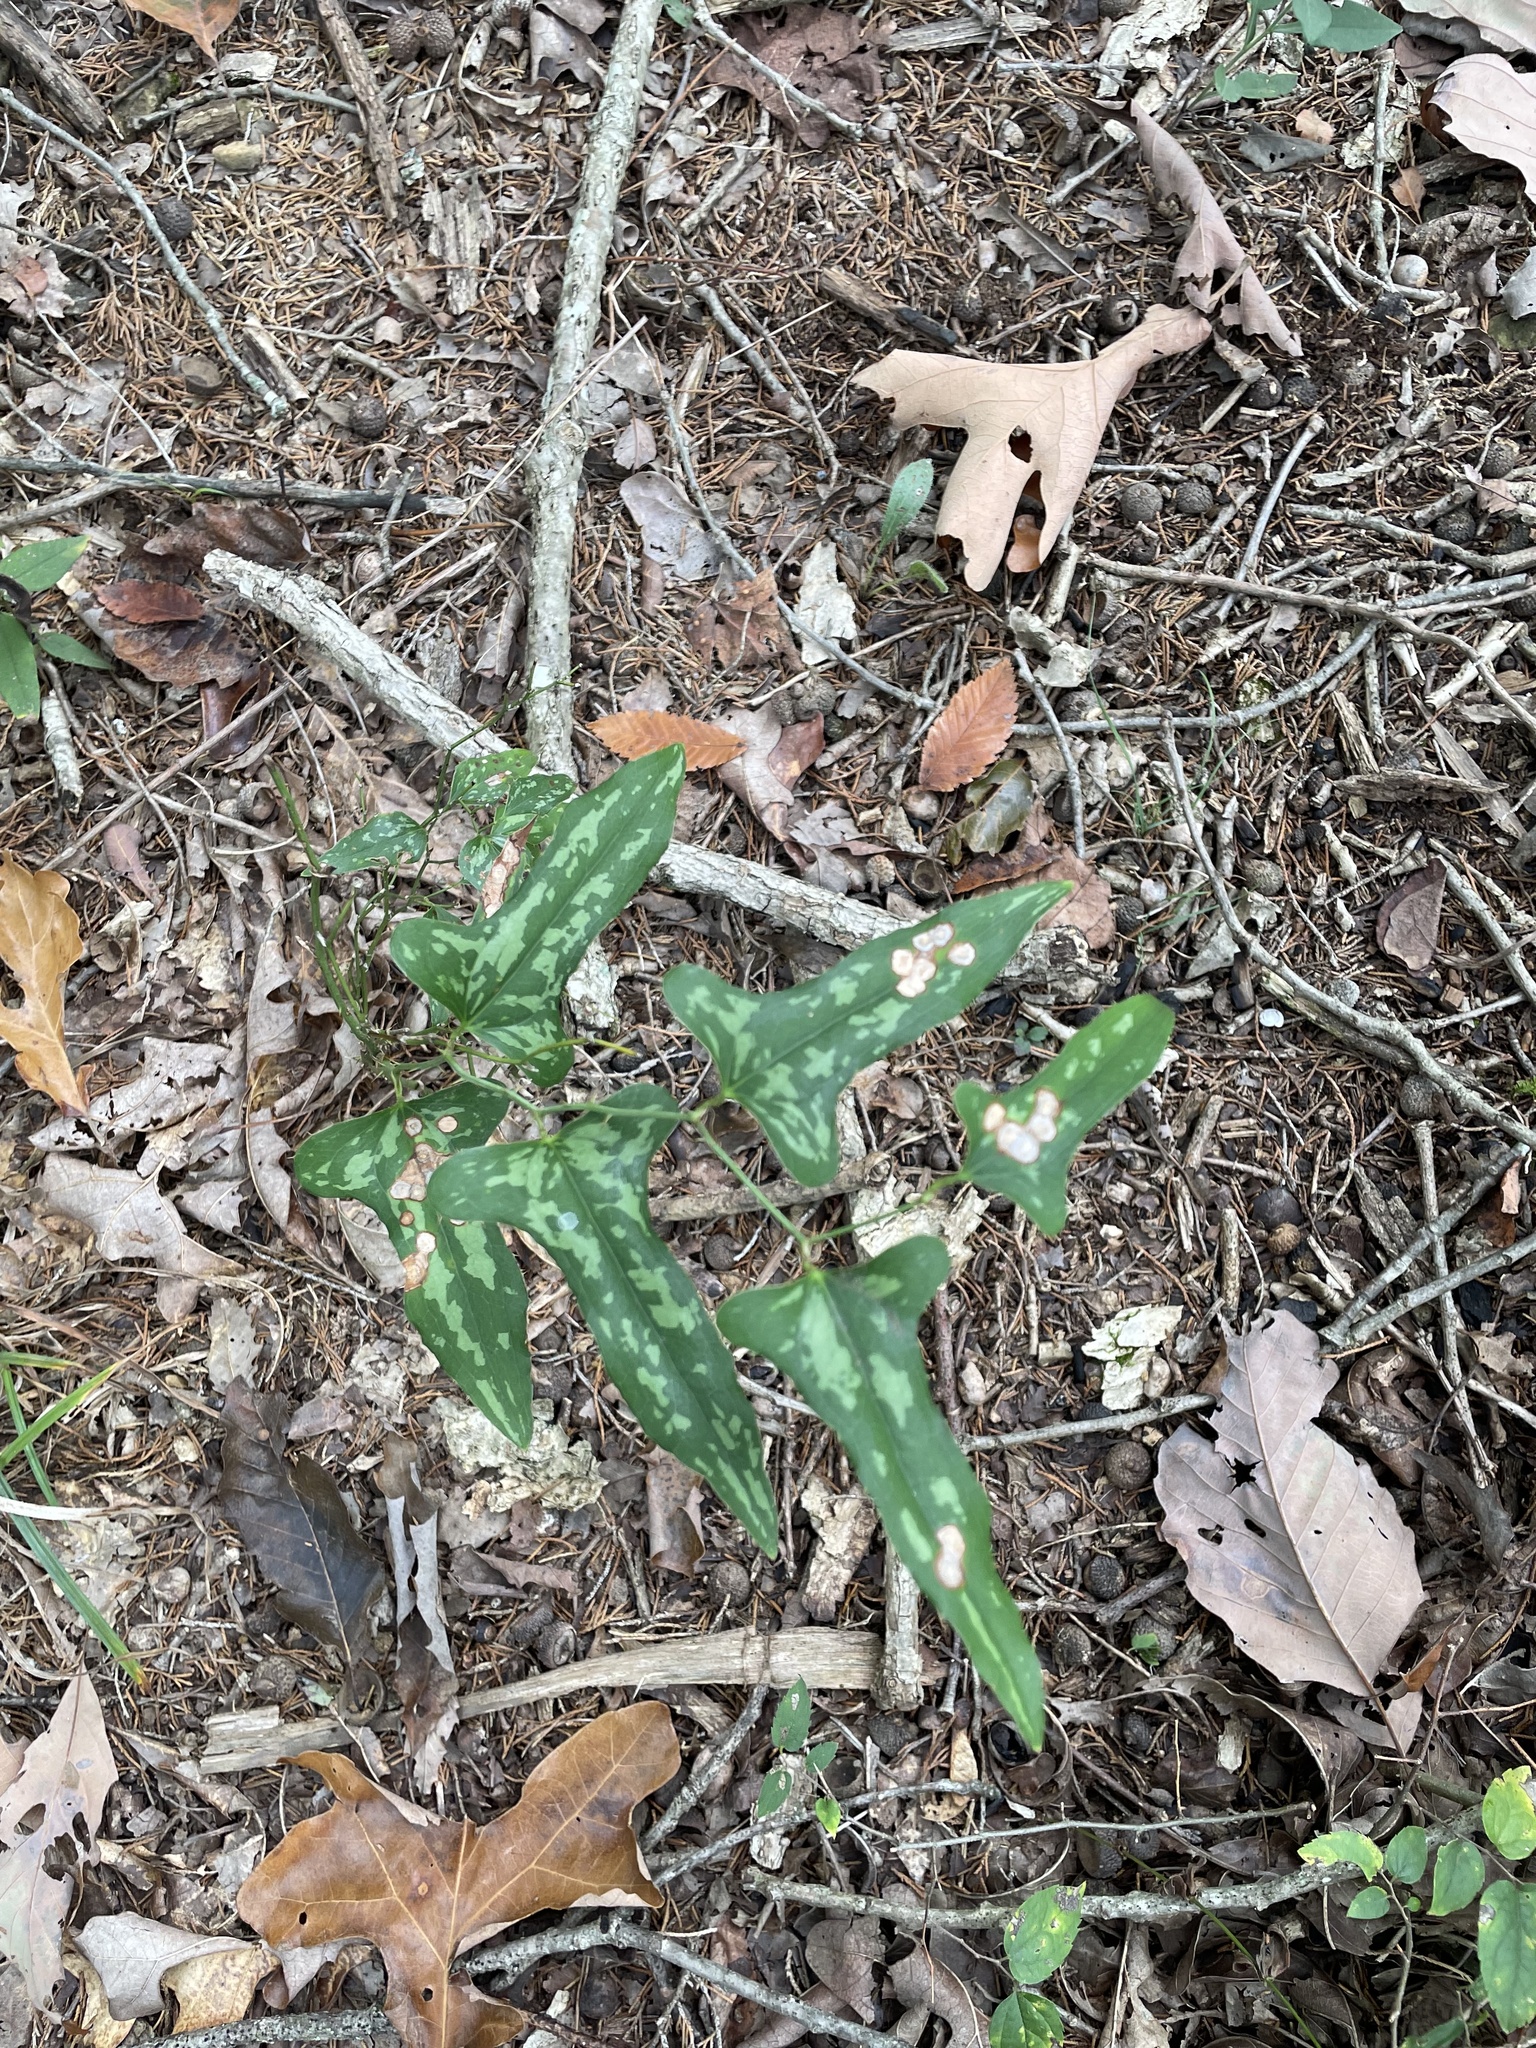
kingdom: Plantae
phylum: Tracheophyta
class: Liliopsida
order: Liliales
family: Smilacaceae
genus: Smilax
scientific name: Smilax bona-nox
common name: Catbrier
